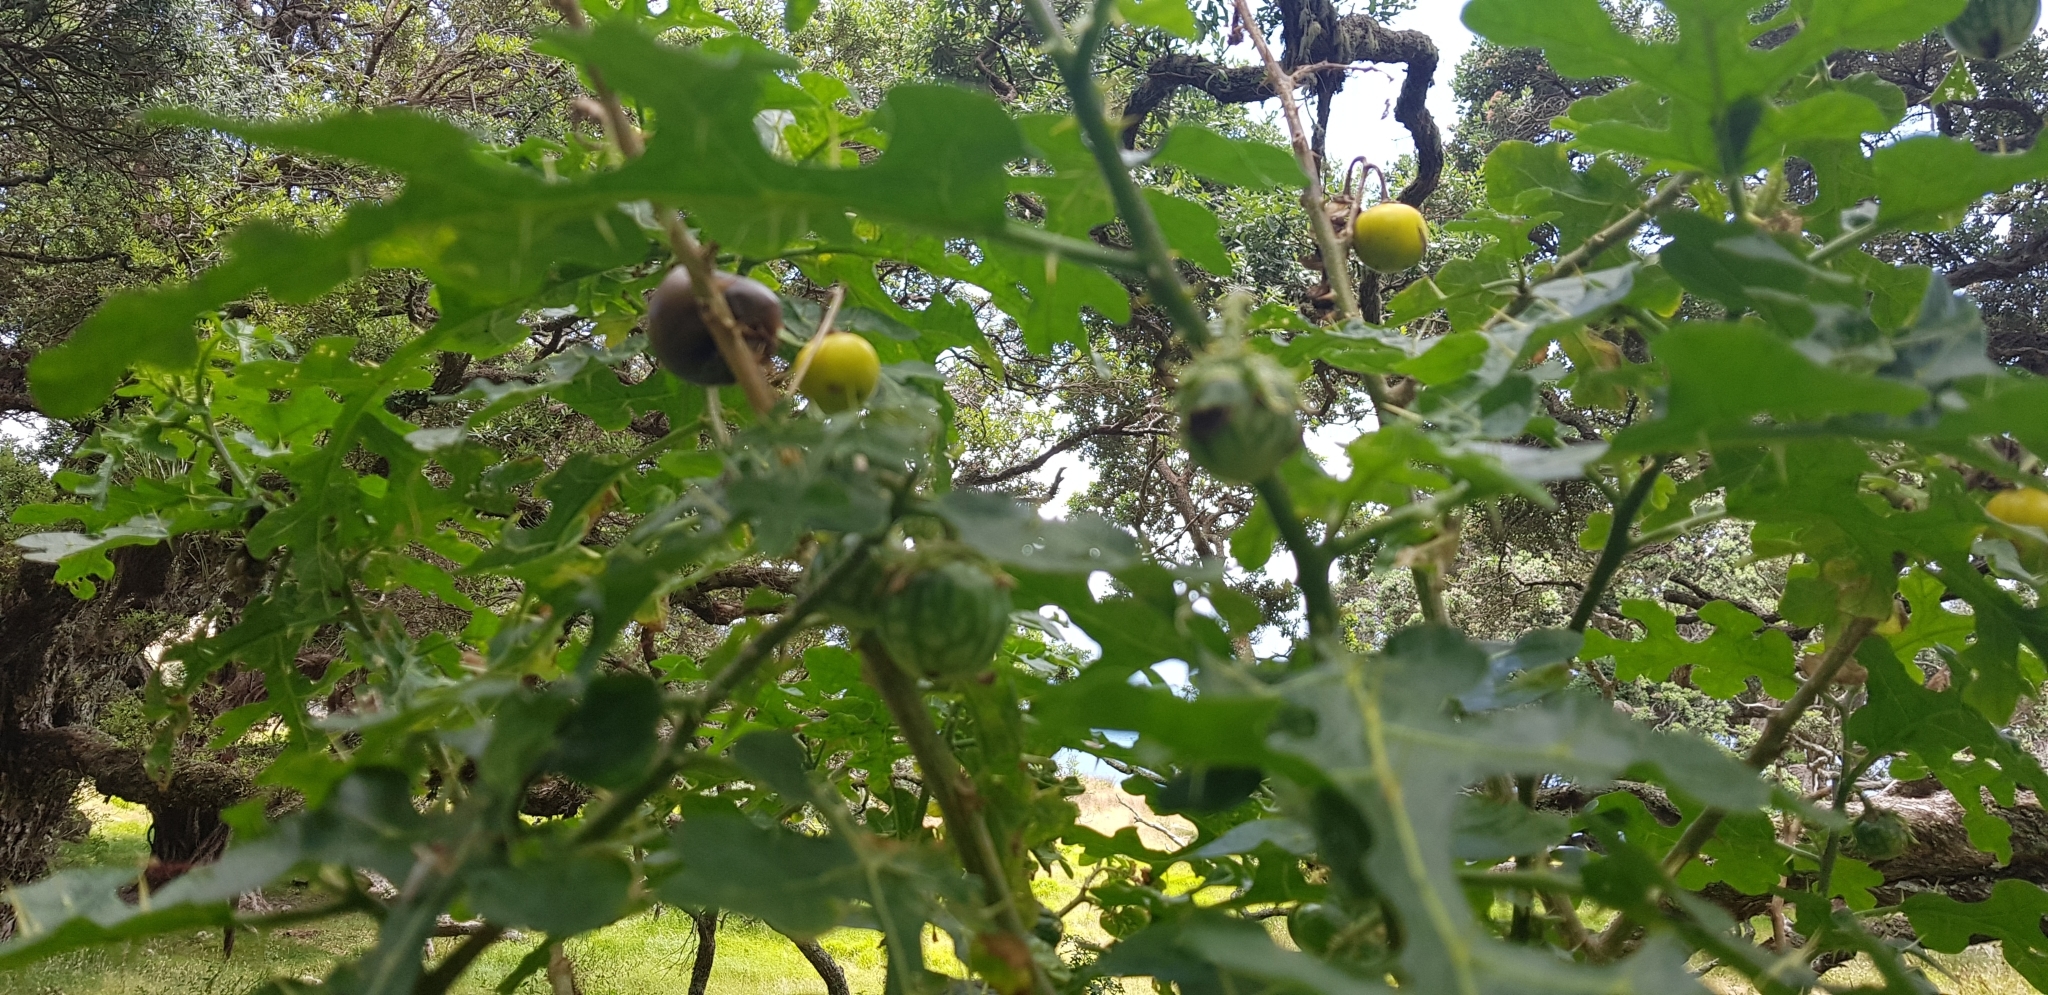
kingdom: Plantae
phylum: Tracheophyta
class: Magnoliopsida
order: Solanales
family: Solanaceae
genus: Solanum
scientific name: Solanum linnaeanum
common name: Nightshade
